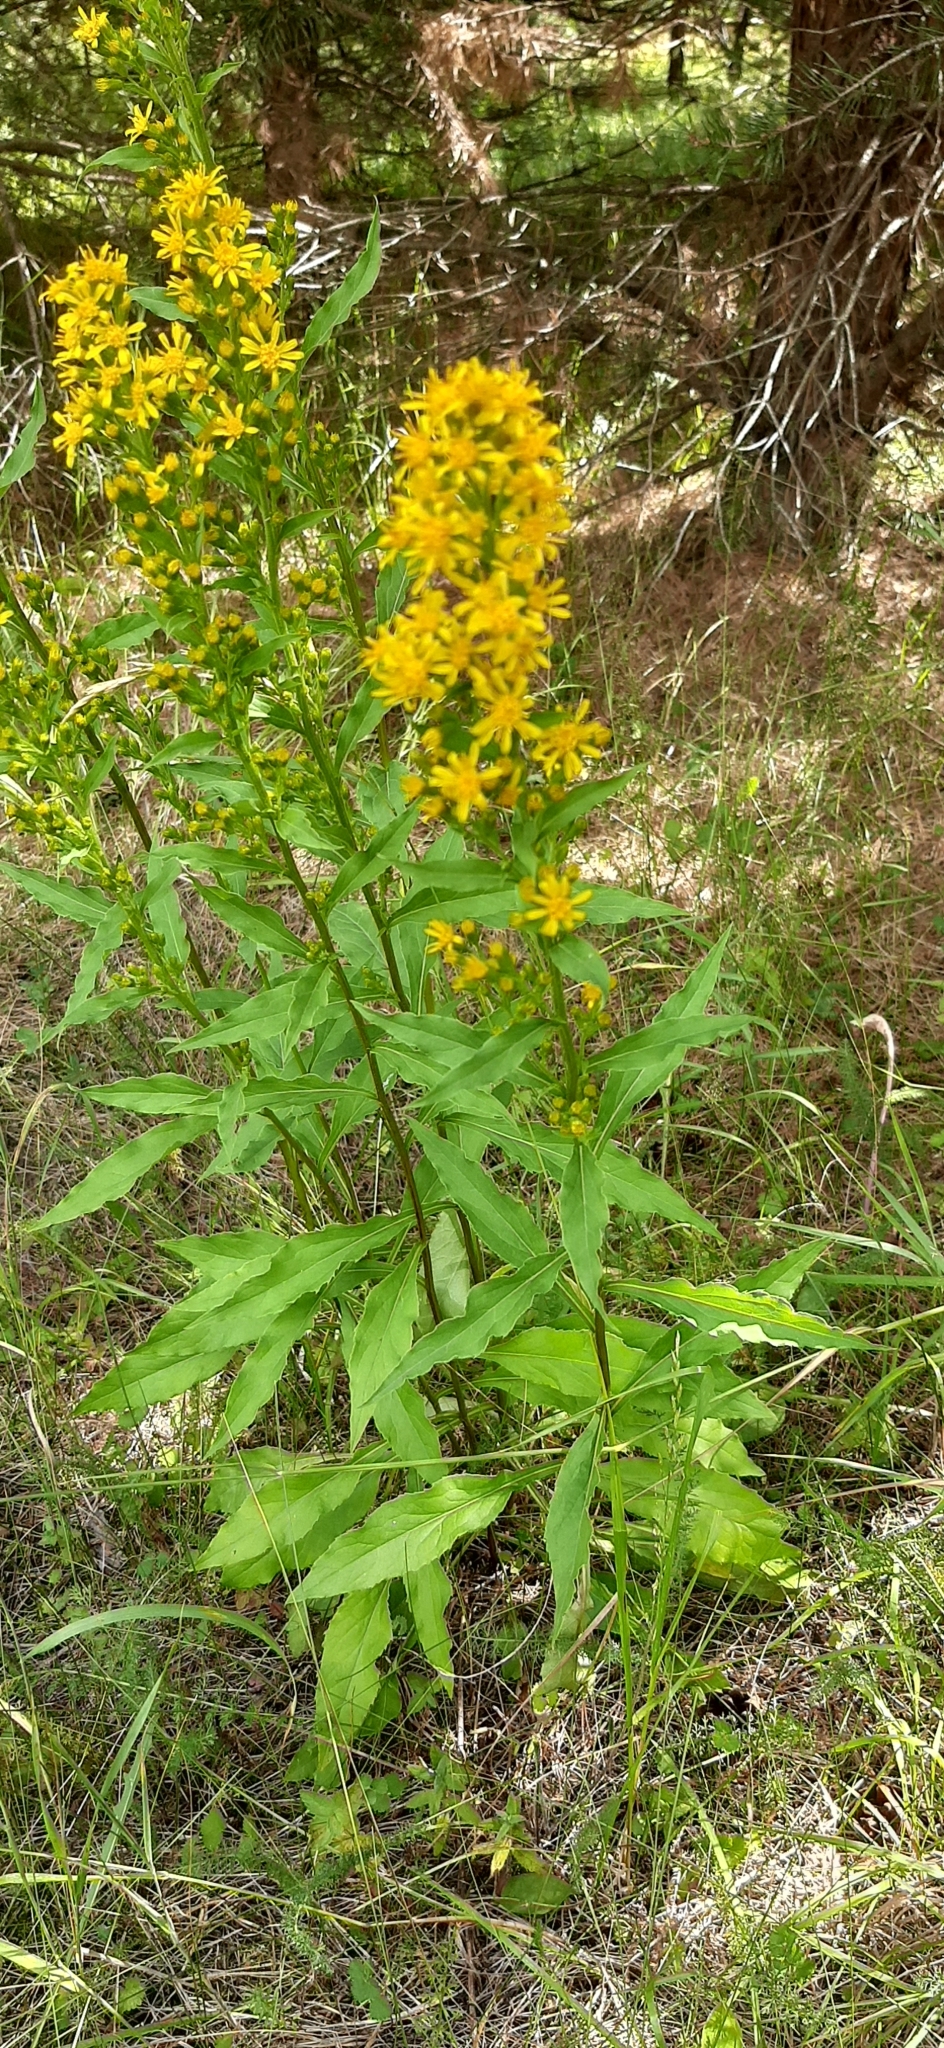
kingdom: Plantae
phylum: Tracheophyta
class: Magnoliopsida
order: Asterales
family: Asteraceae
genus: Solidago
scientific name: Solidago virgaurea
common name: Goldenrod
